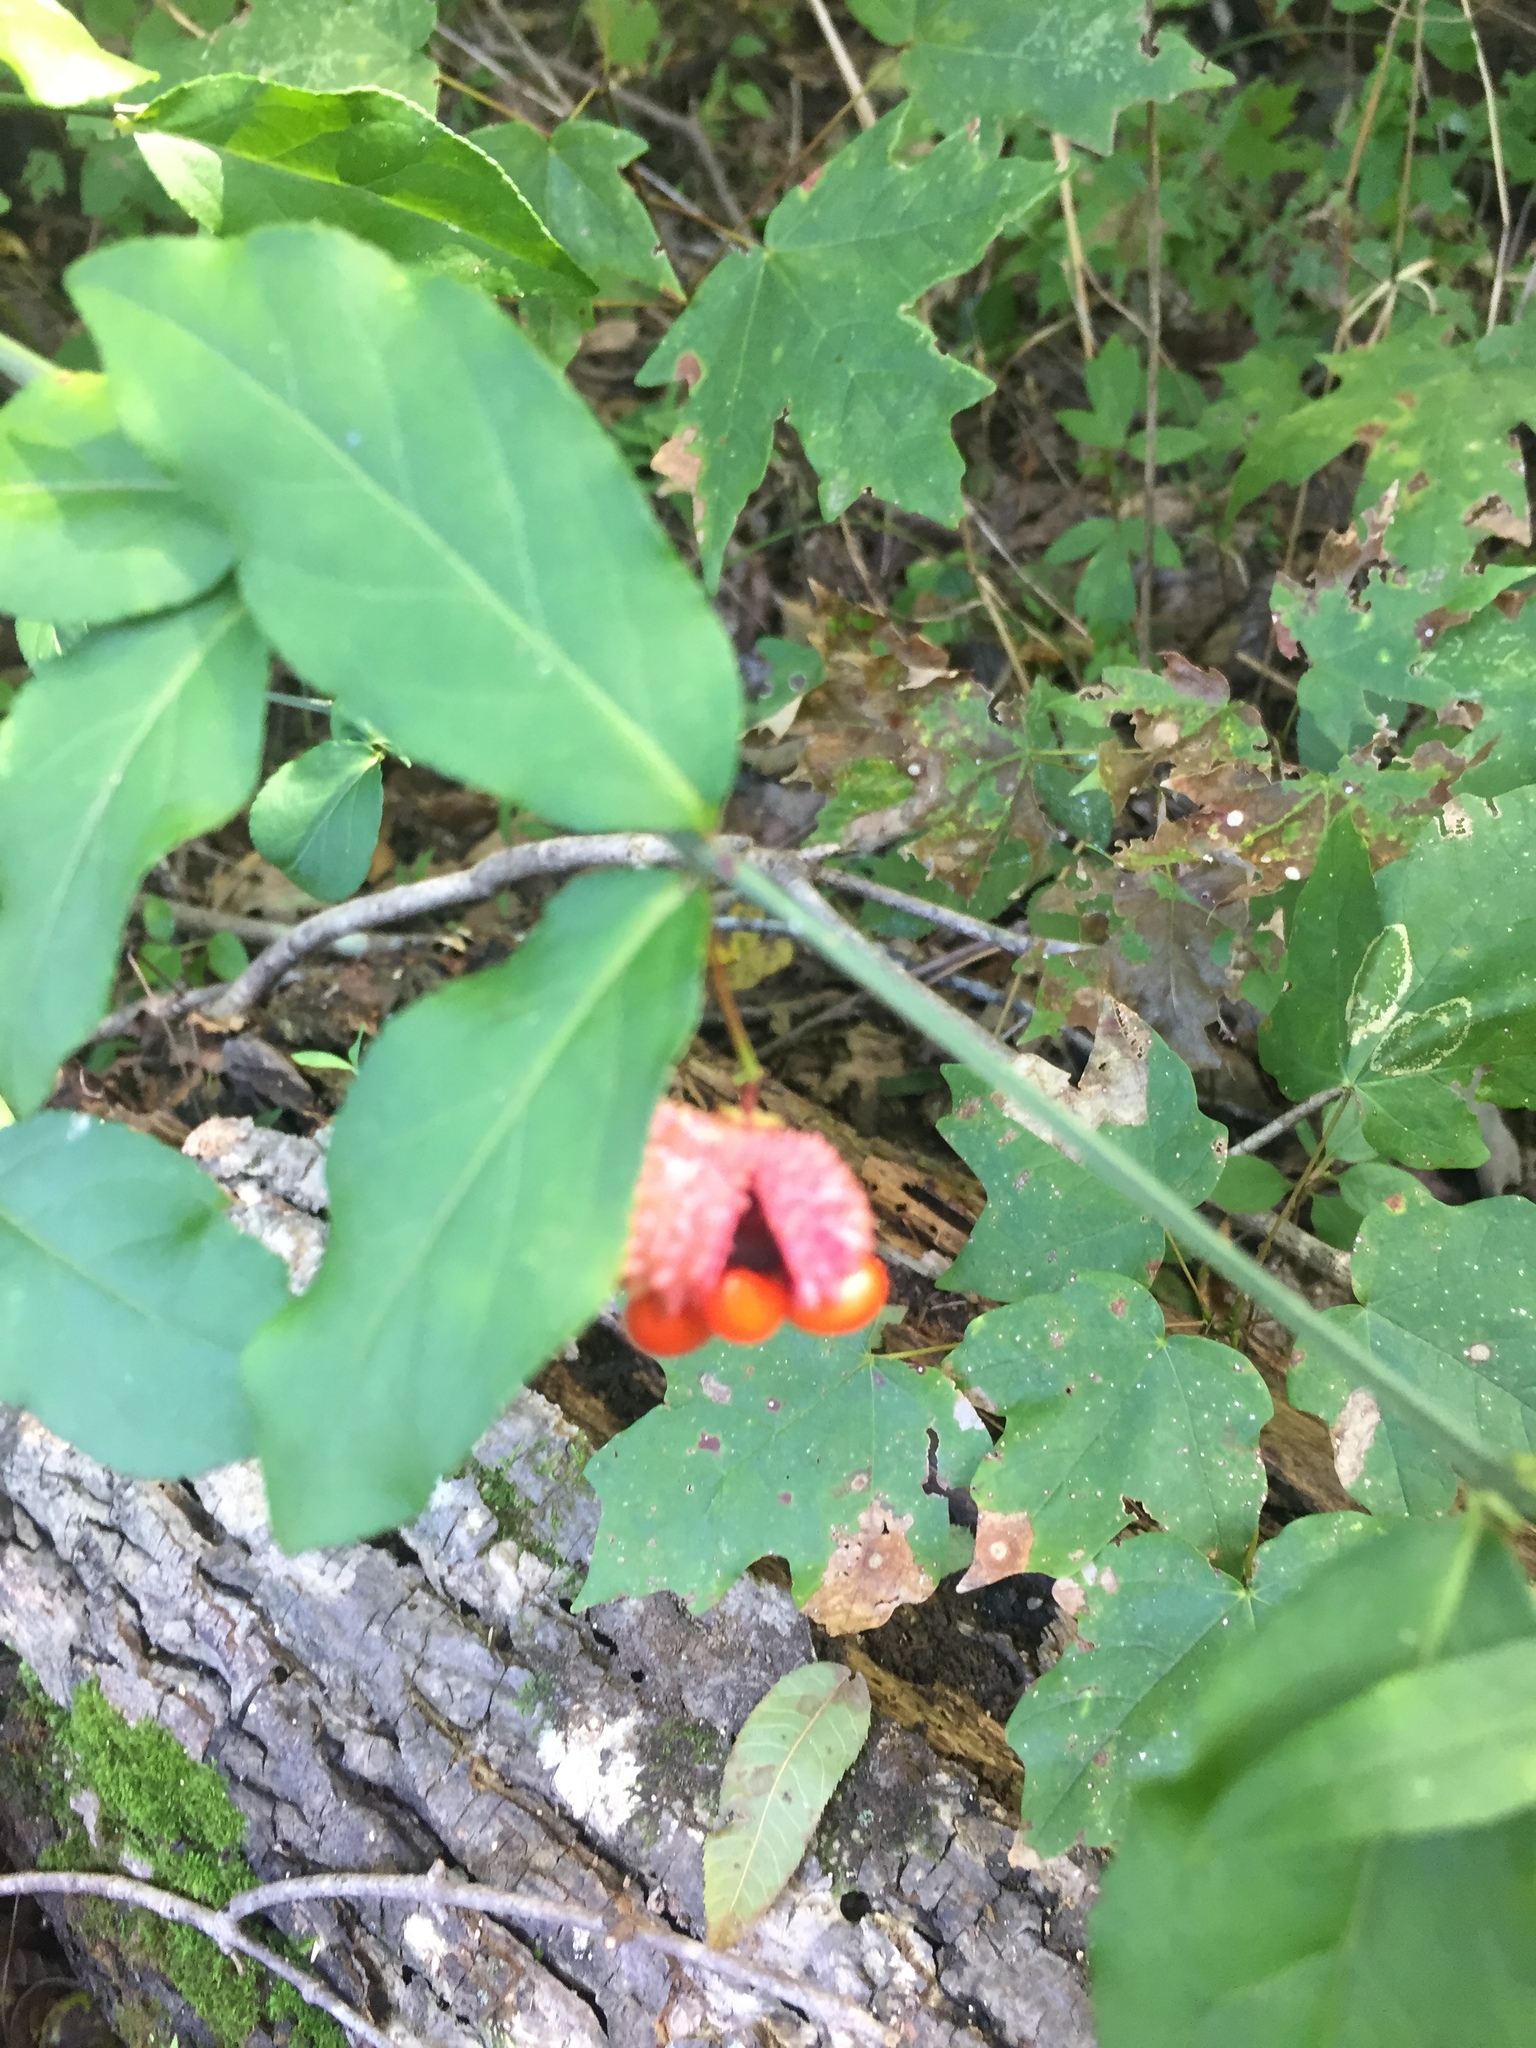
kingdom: Plantae
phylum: Tracheophyta
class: Magnoliopsida
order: Celastrales
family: Celastraceae
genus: Euonymus
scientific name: Euonymus americanus
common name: Bursting-heart
